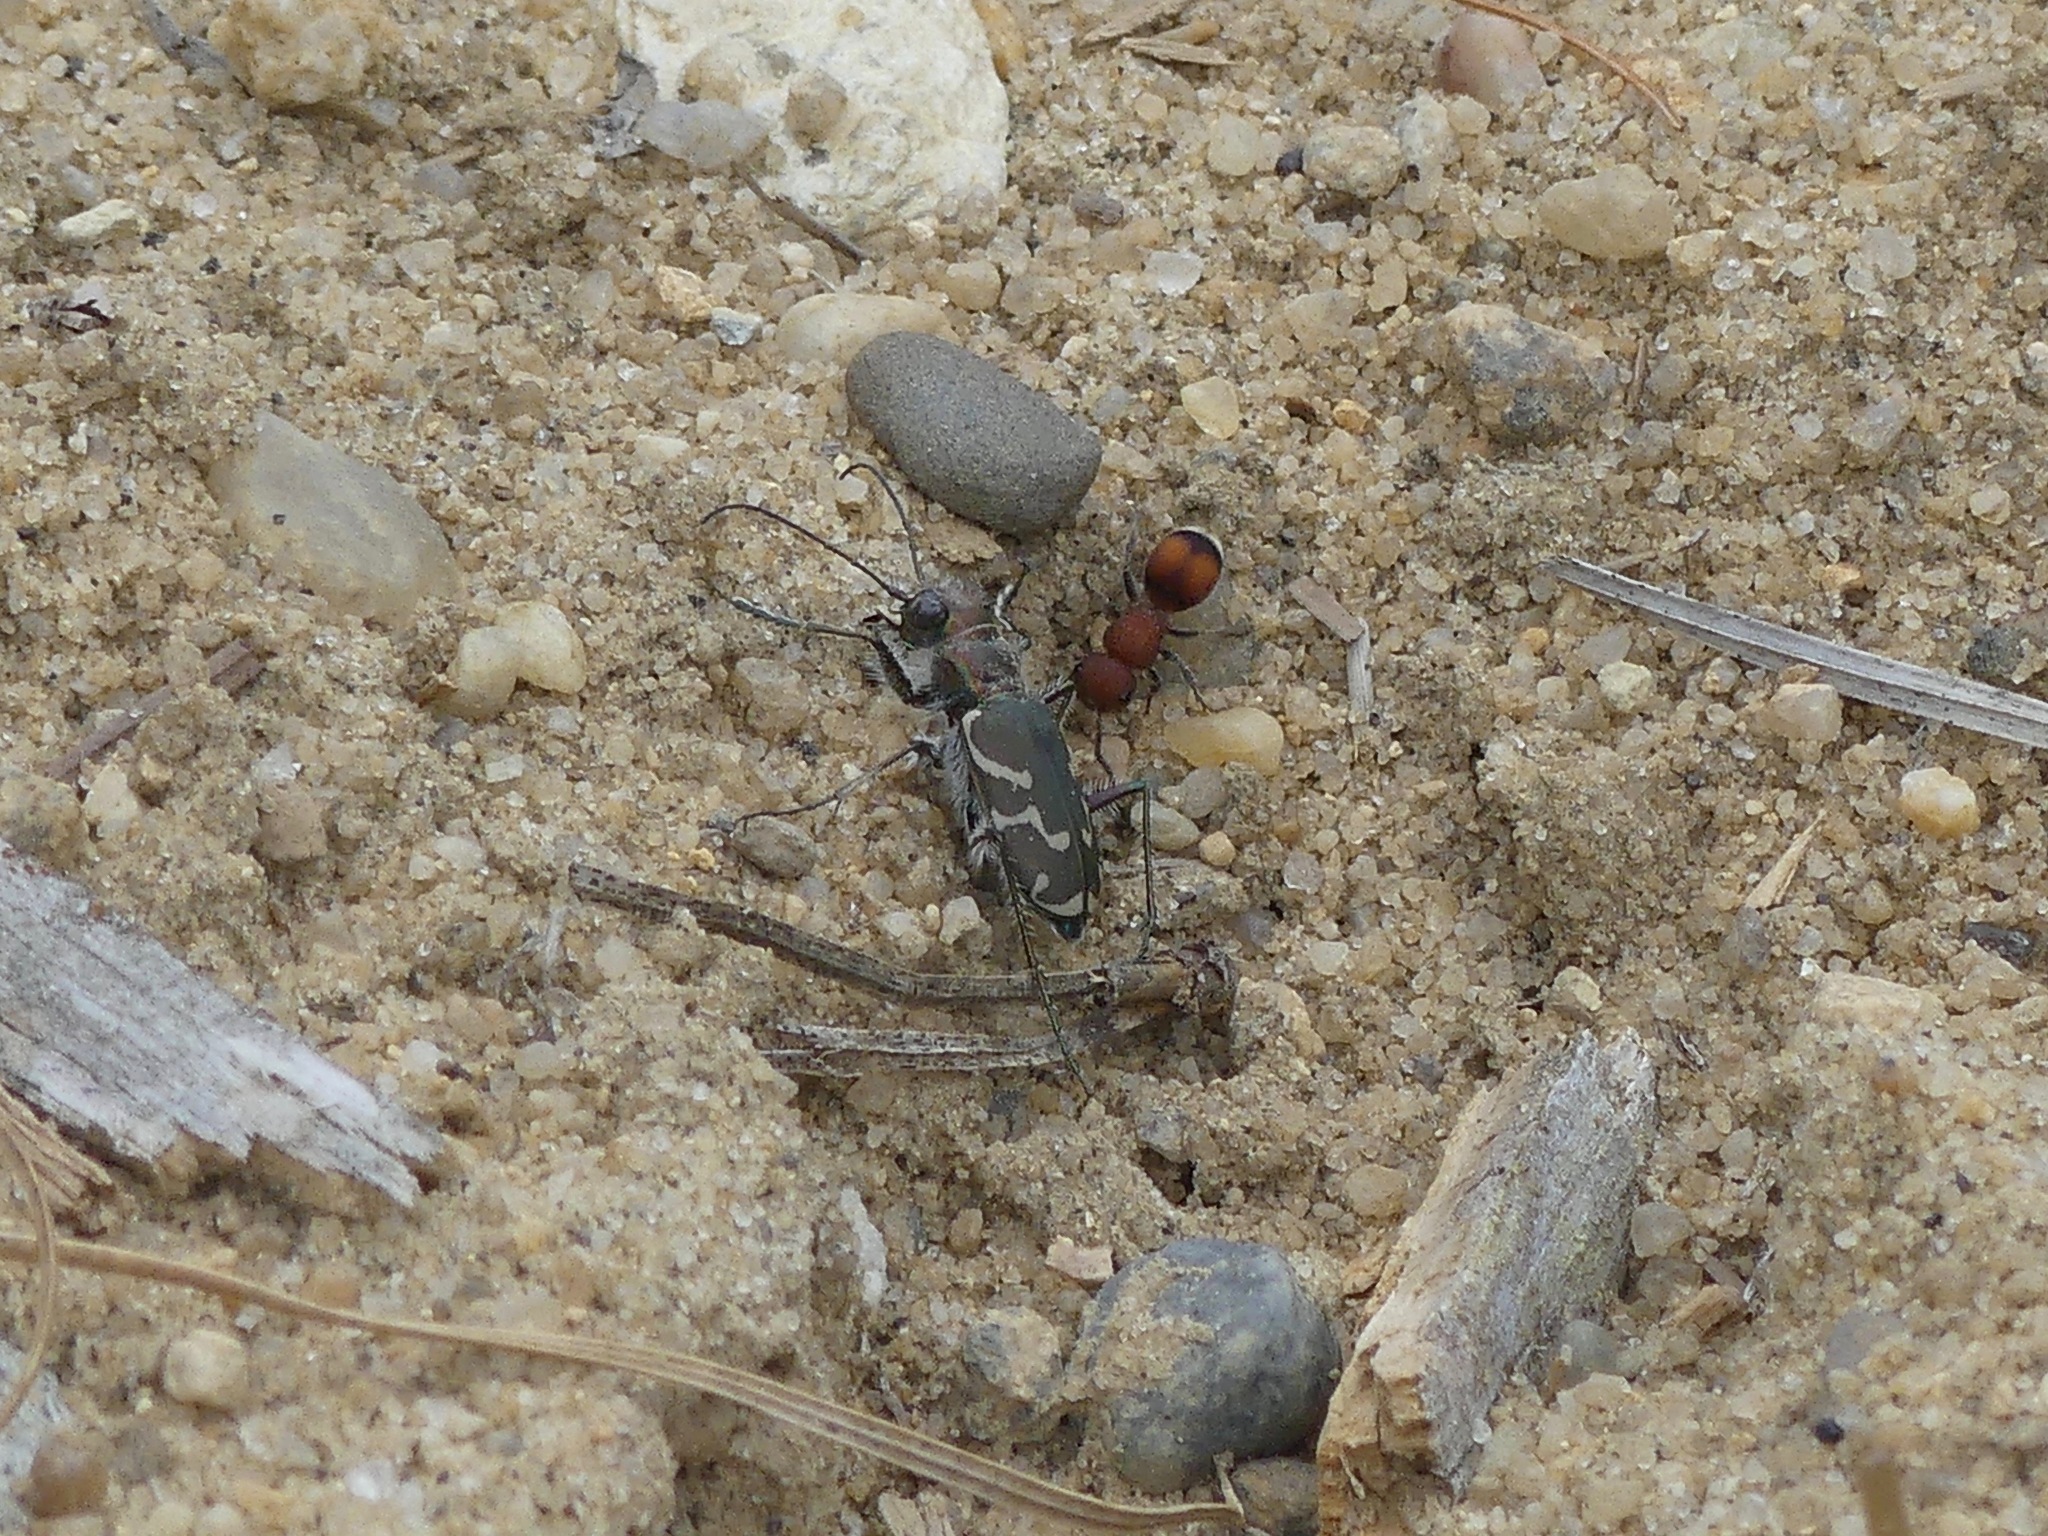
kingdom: Animalia
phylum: Arthropoda
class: Insecta
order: Coleoptera
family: Carabidae
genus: Cicindela
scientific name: Cicindela tranquebarica
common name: Oblique-lined tiger beetle
